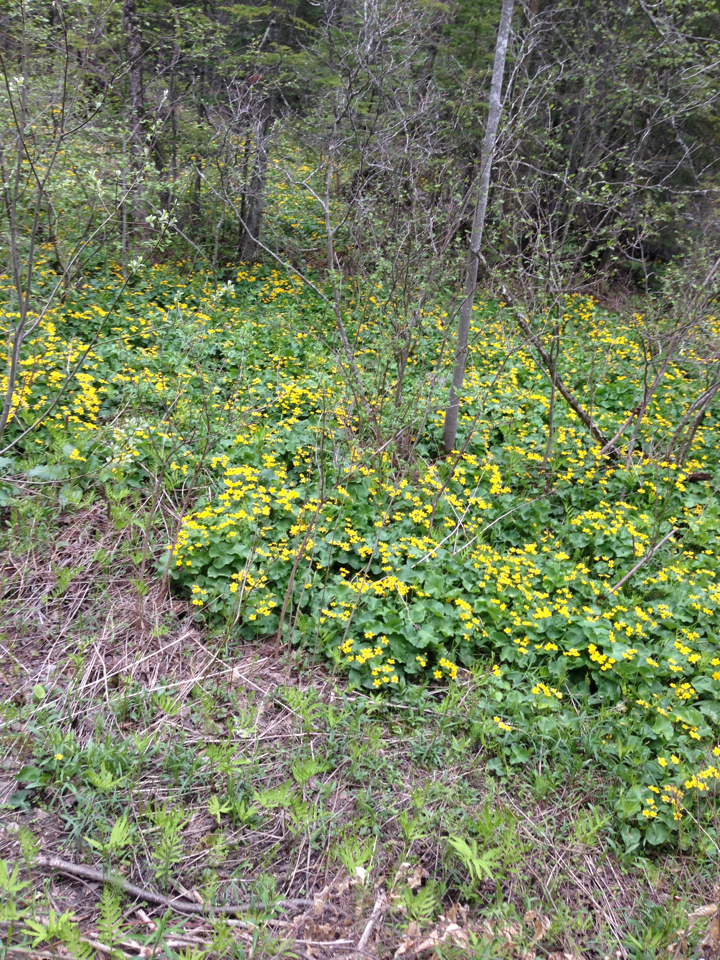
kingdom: Plantae
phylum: Tracheophyta
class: Magnoliopsida
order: Ranunculales
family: Ranunculaceae
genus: Caltha
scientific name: Caltha palustris
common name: Marsh marigold
